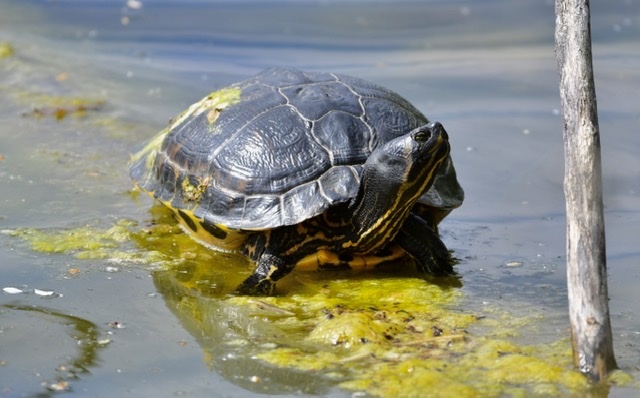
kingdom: Animalia
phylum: Chordata
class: Testudines
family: Emydidae
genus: Trachemys
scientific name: Trachemys scripta
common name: Slider
